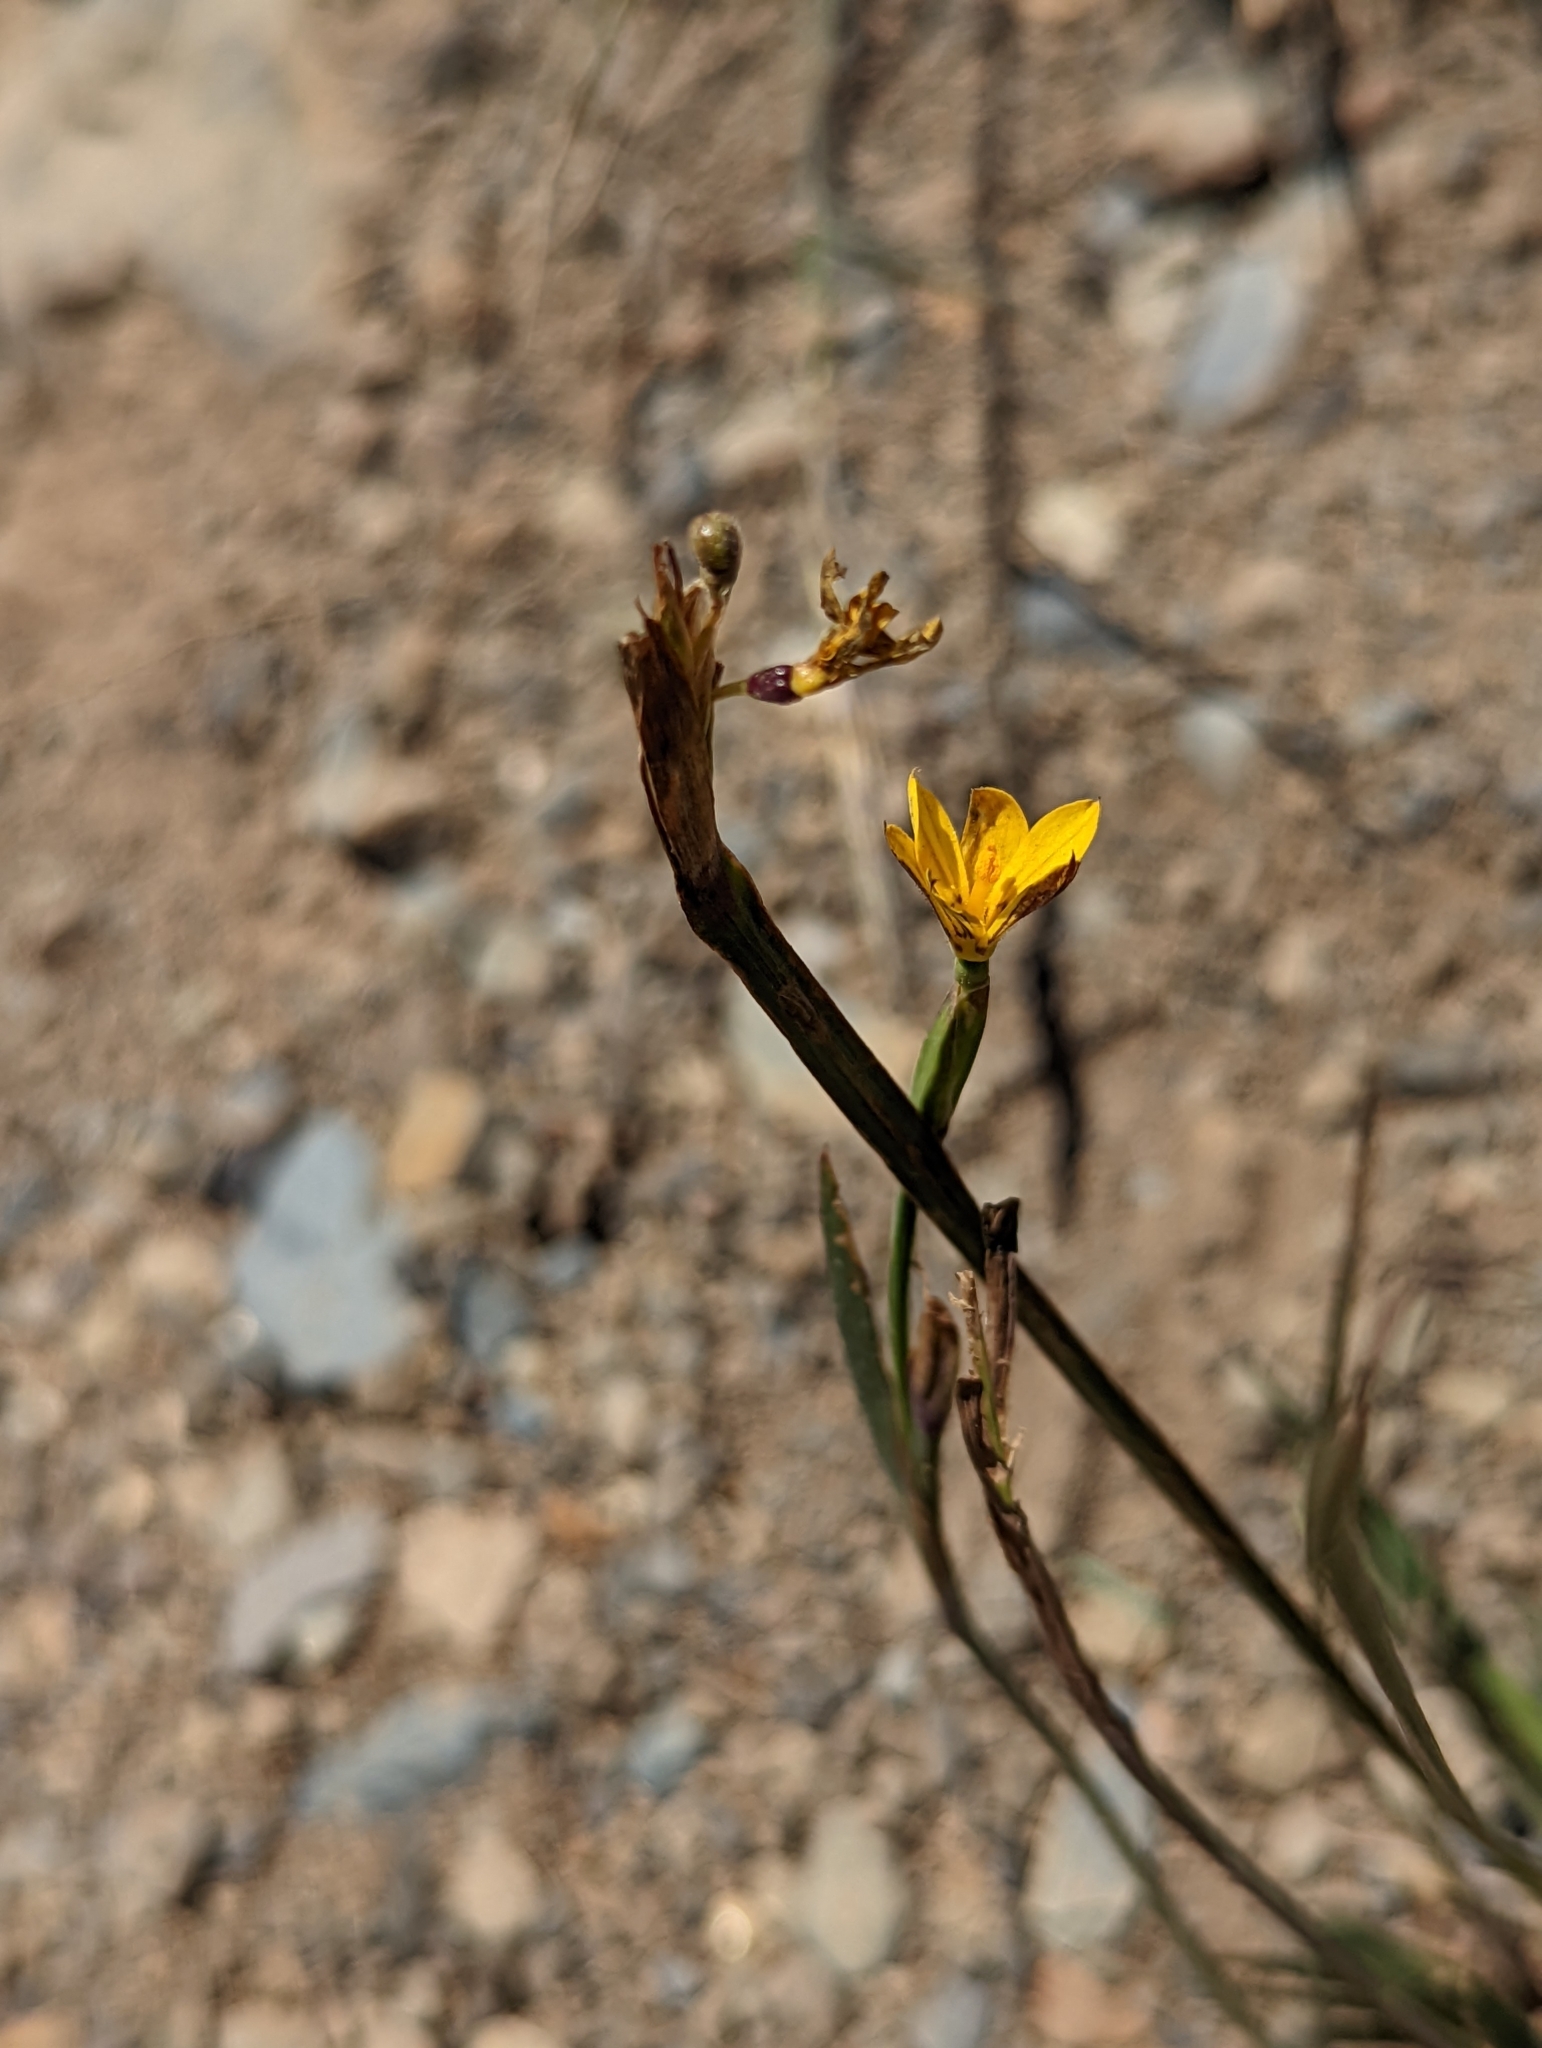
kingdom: Plantae
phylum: Tracheophyta
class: Liliopsida
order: Asparagales
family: Iridaceae
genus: Sisyrinchium
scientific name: Sisyrinchium patagonicum
